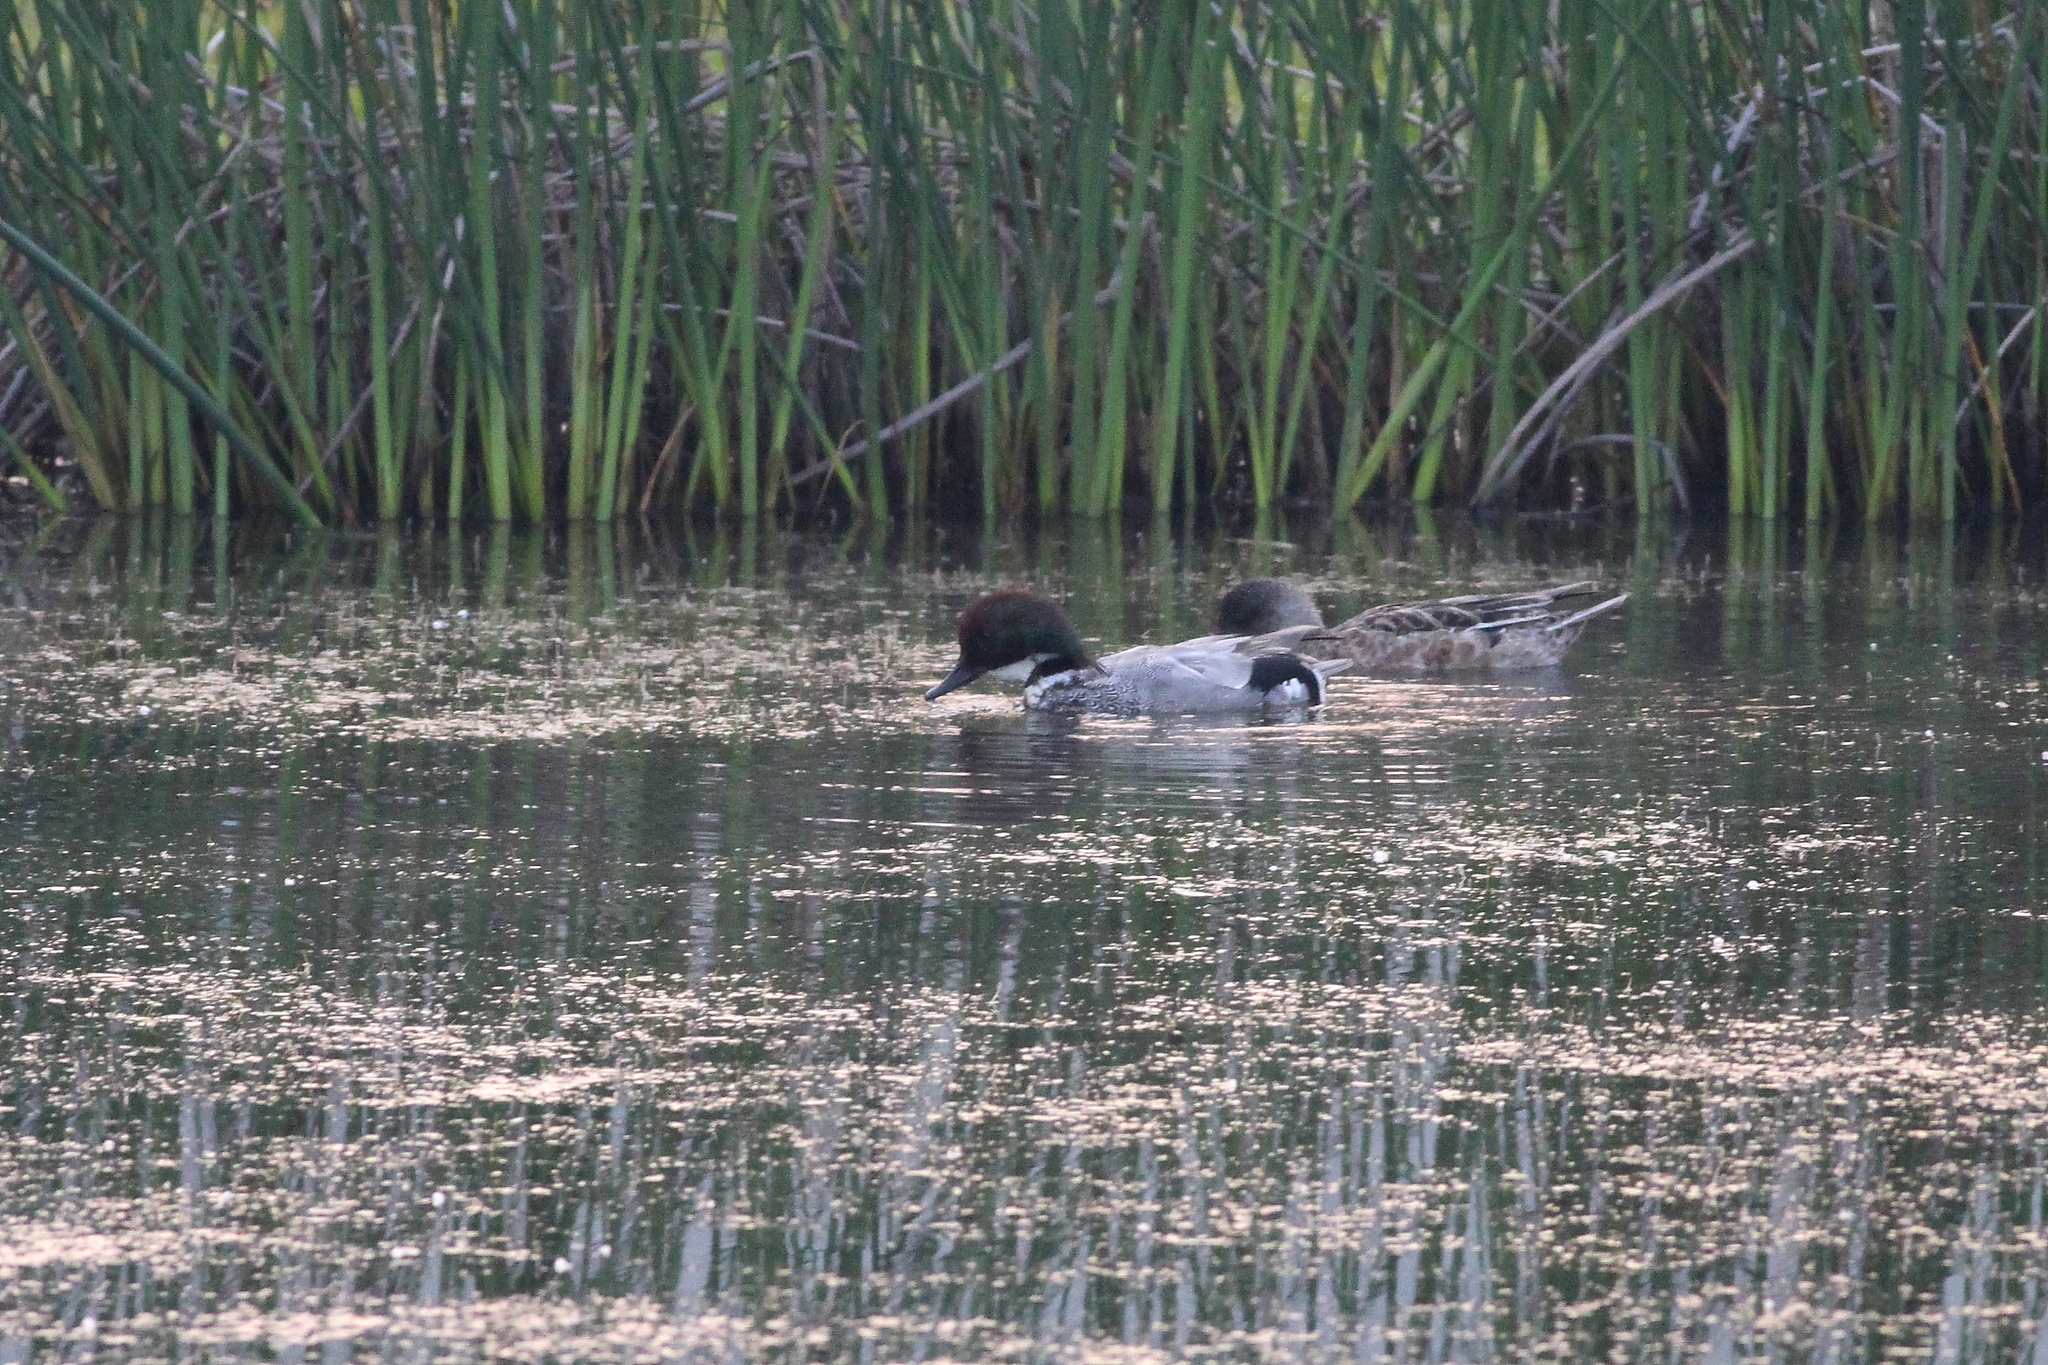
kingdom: Animalia
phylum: Chordata
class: Aves
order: Anseriformes
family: Anatidae
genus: Mareca
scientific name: Mareca falcata
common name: Falcated duck
